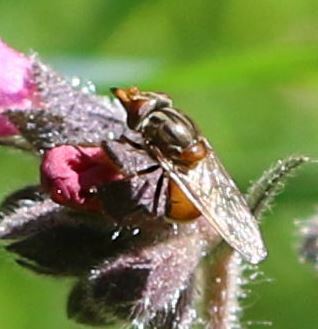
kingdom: Animalia
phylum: Arthropoda
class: Insecta
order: Diptera
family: Syrphidae
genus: Rhingia
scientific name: Rhingia campestris
